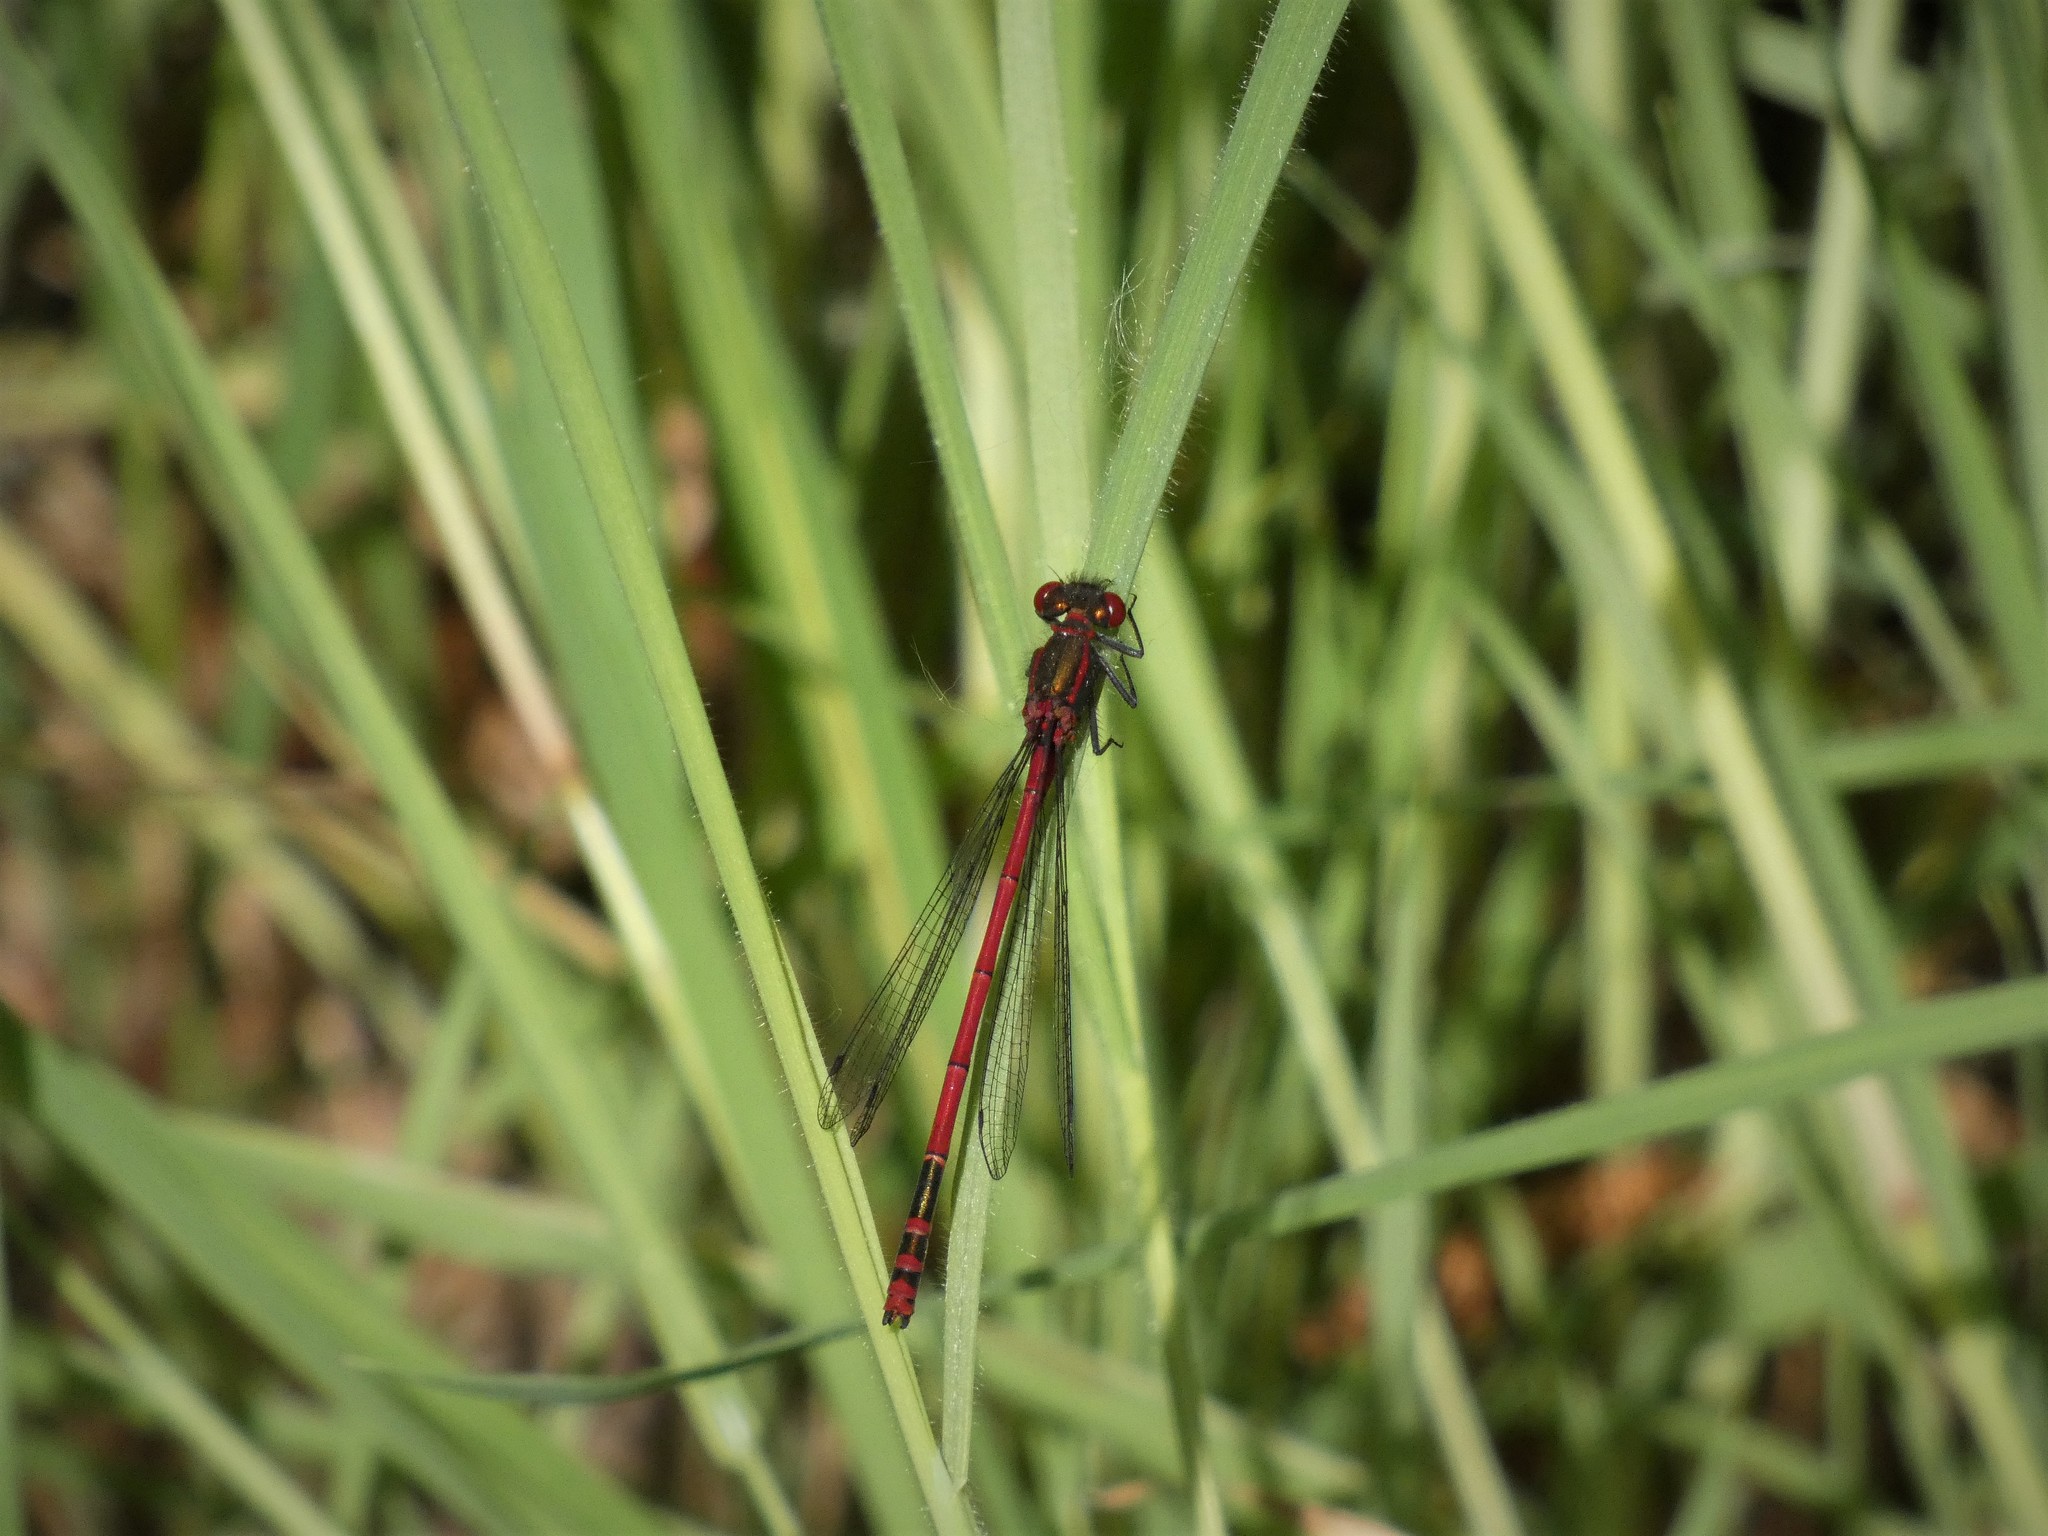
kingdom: Animalia
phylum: Arthropoda
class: Insecta
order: Odonata
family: Coenagrionidae
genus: Pyrrhosoma
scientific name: Pyrrhosoma nymphula
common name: Large red damsel
